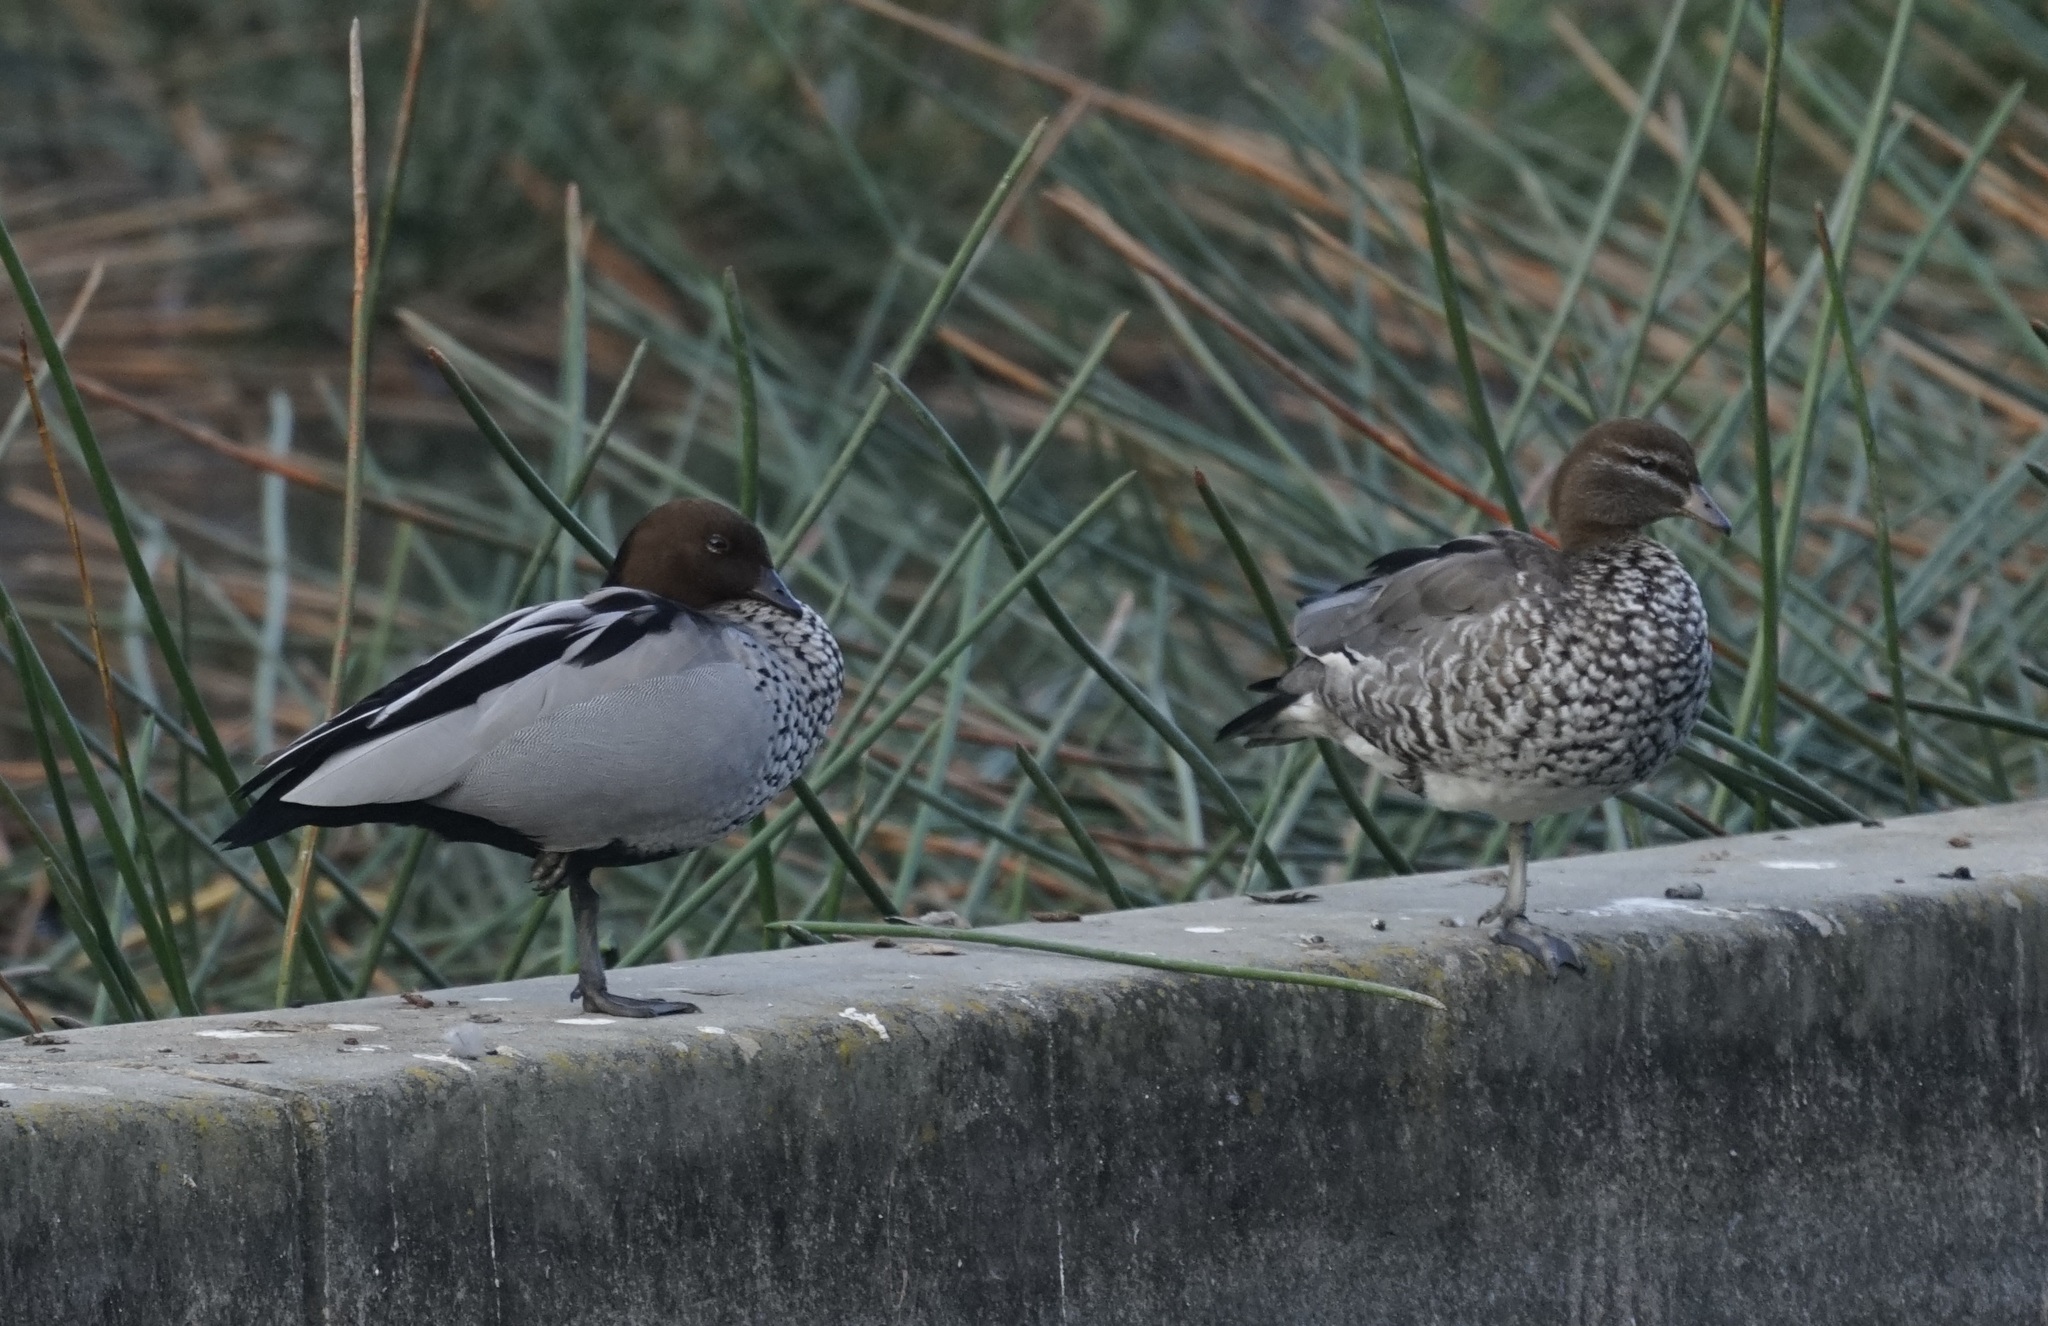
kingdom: Animalia
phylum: Chordata
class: Aves
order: Anseriformes
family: Anatidae
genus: Chenonetta
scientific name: Chenonetta jubata
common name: Maned duck
